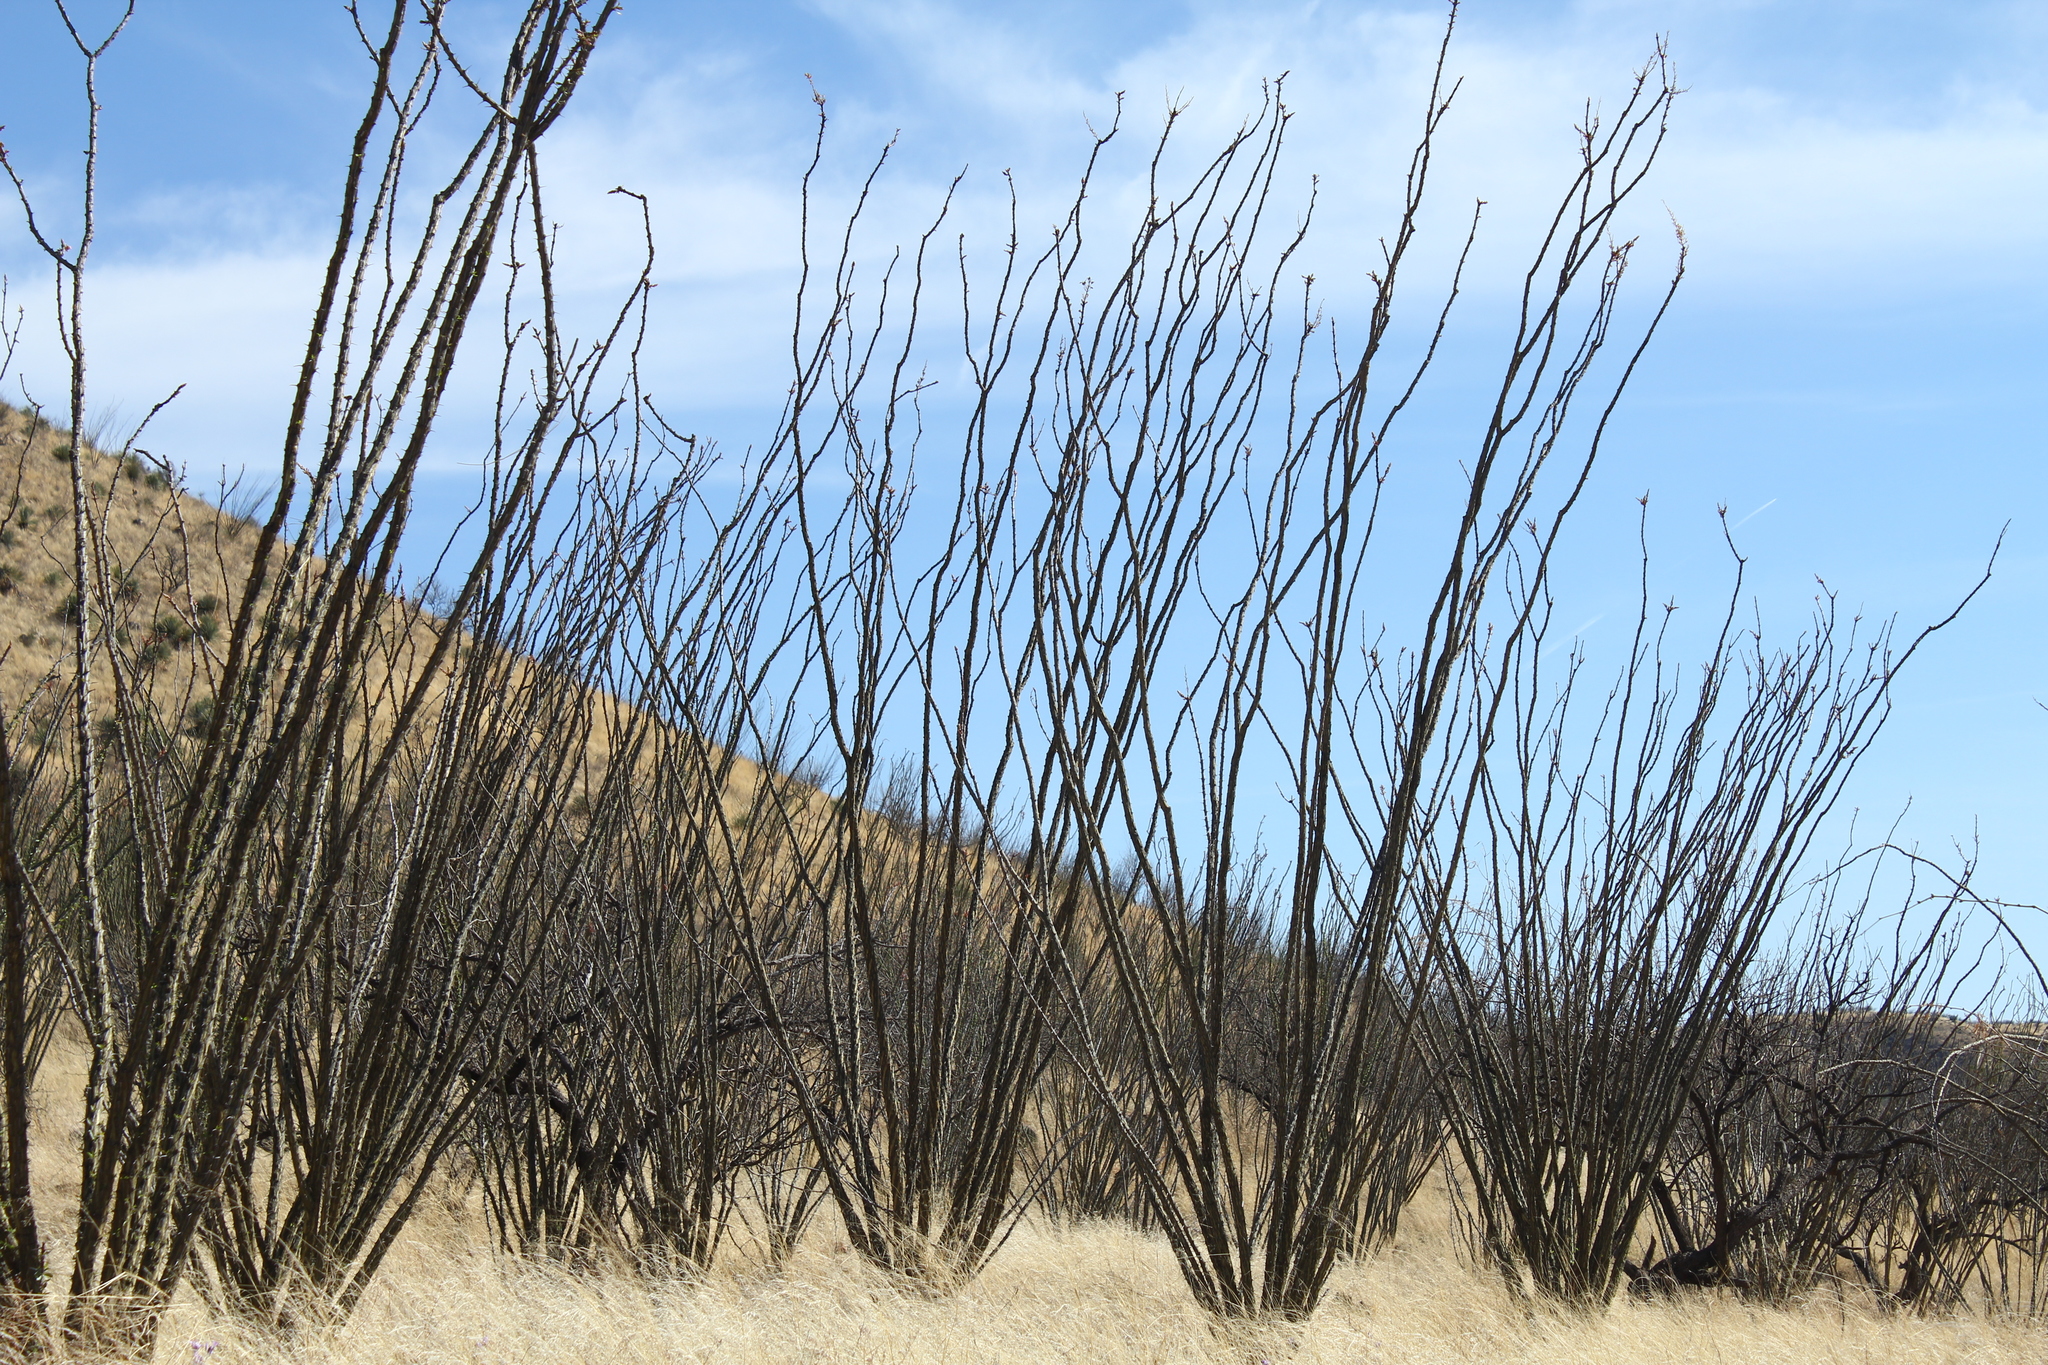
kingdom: Plantae
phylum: Tracheophyta
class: Magnoliopsida
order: Ericales
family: Fouquieriaceae
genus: Fouquieria
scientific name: Fouquieria splendens
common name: Vine-cactus
